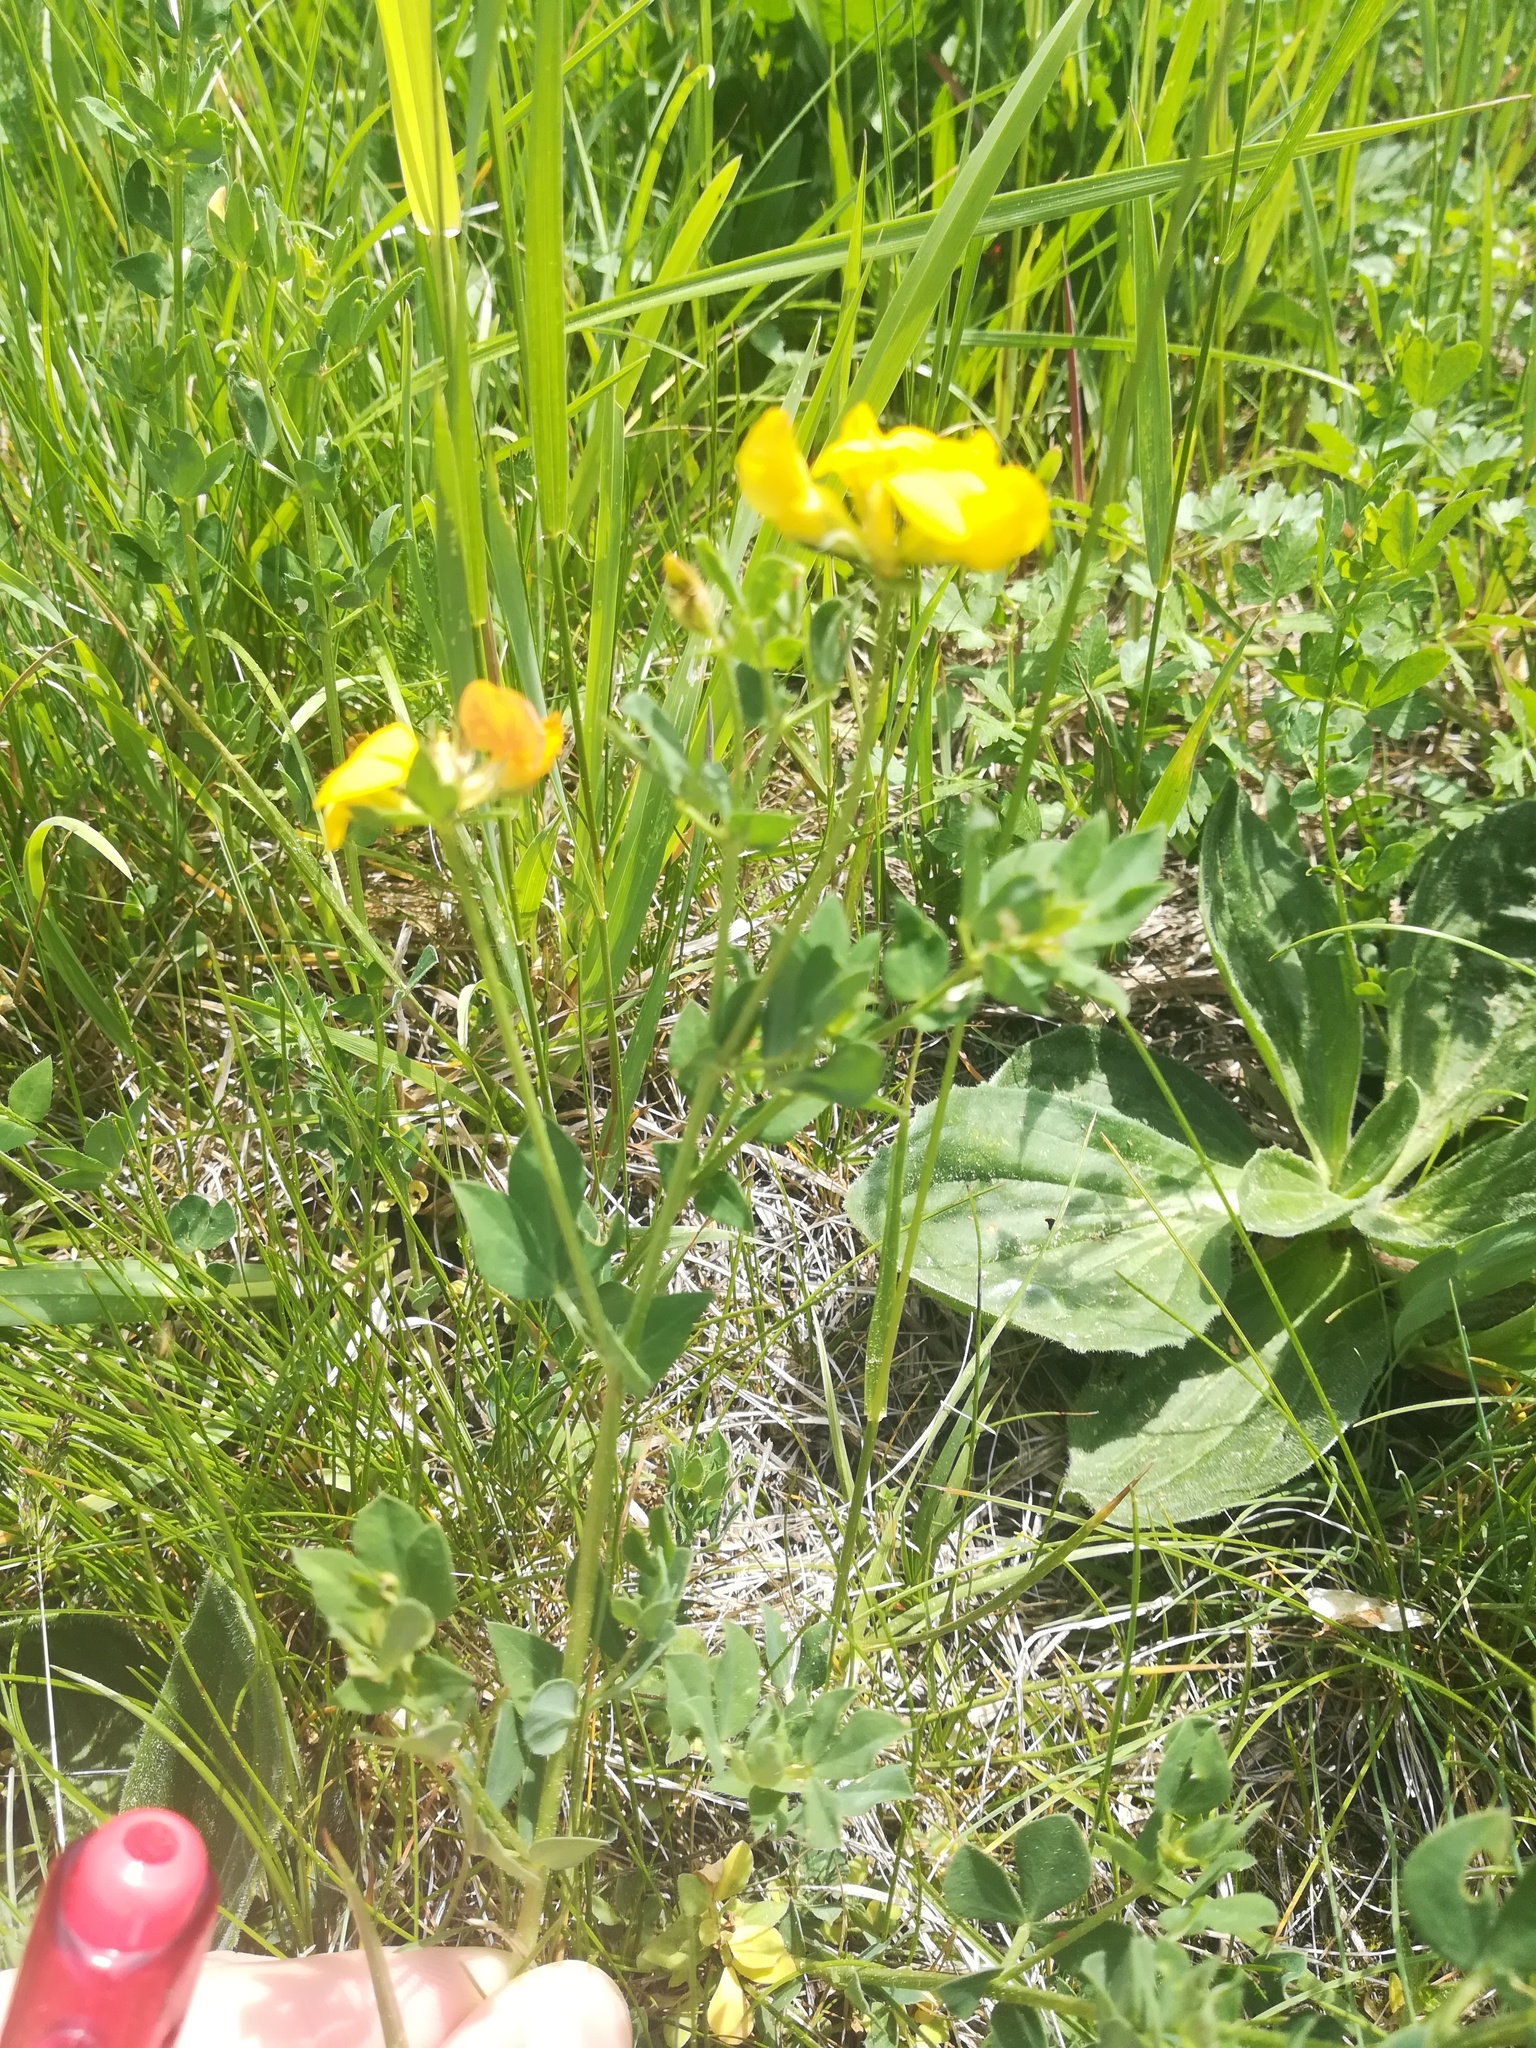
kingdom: Plantae
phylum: Tracheophyta
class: Magnoliopsida
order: Fabales
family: Fabaceae
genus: Lotus
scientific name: Lotus corniculatus
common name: Common bird's-foot-trefoil
